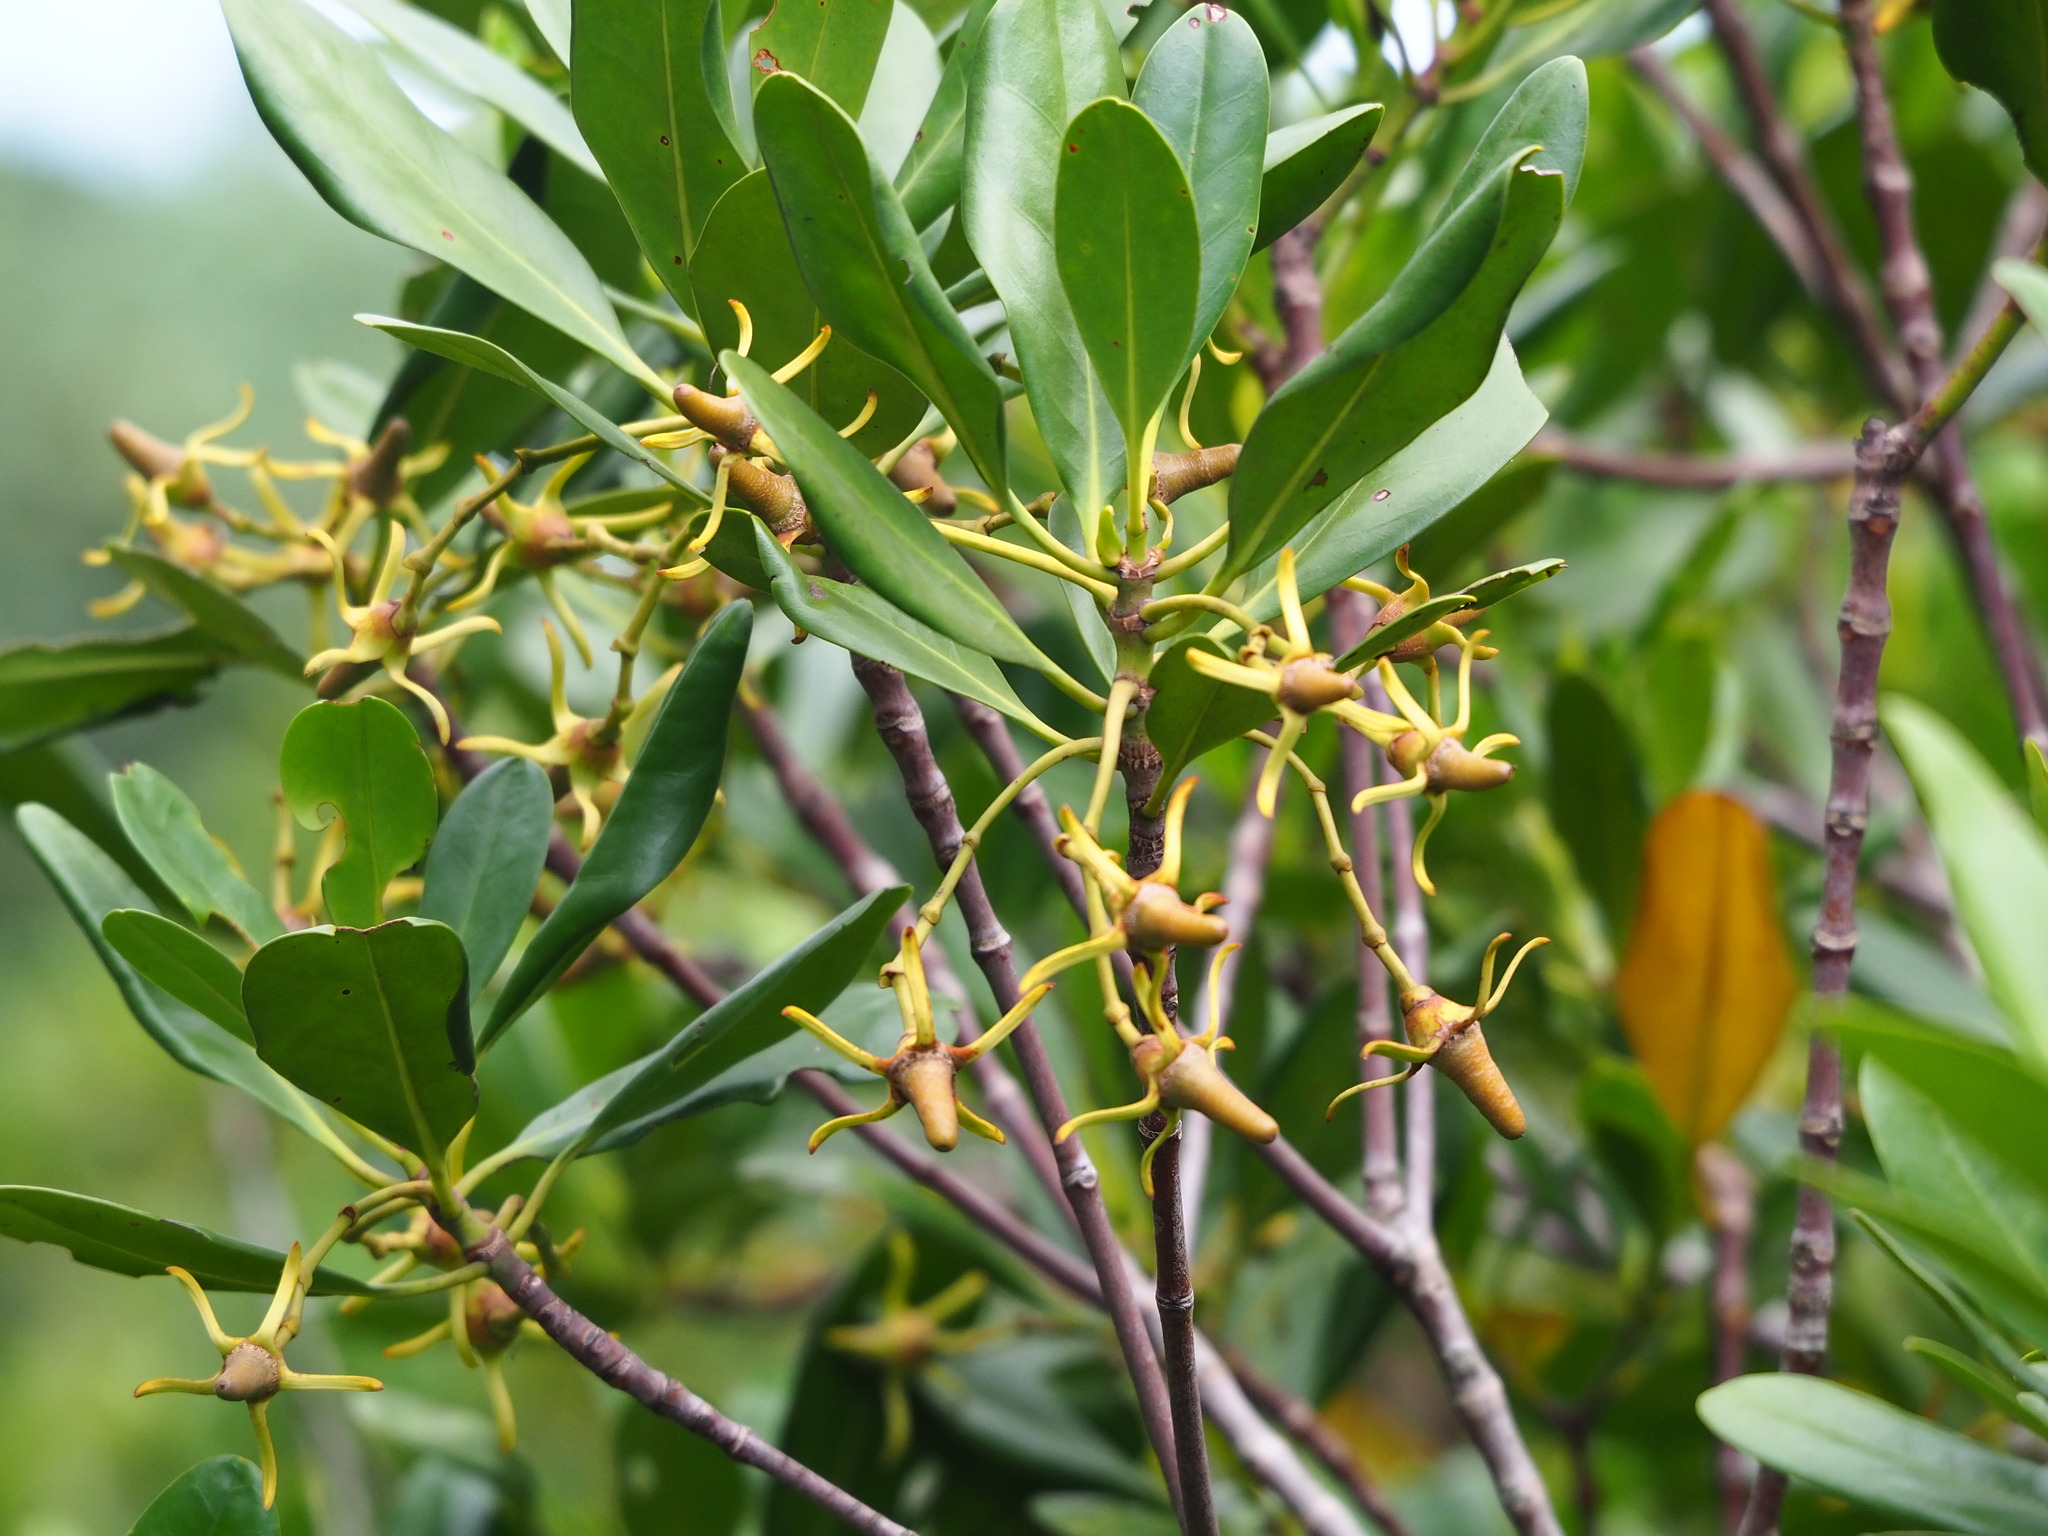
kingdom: Plantae
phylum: Tracheophyta
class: Magnoliopsida
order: Malpighiales
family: Rhizophoraceae
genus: Kandelia
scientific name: Kandelia obovata
